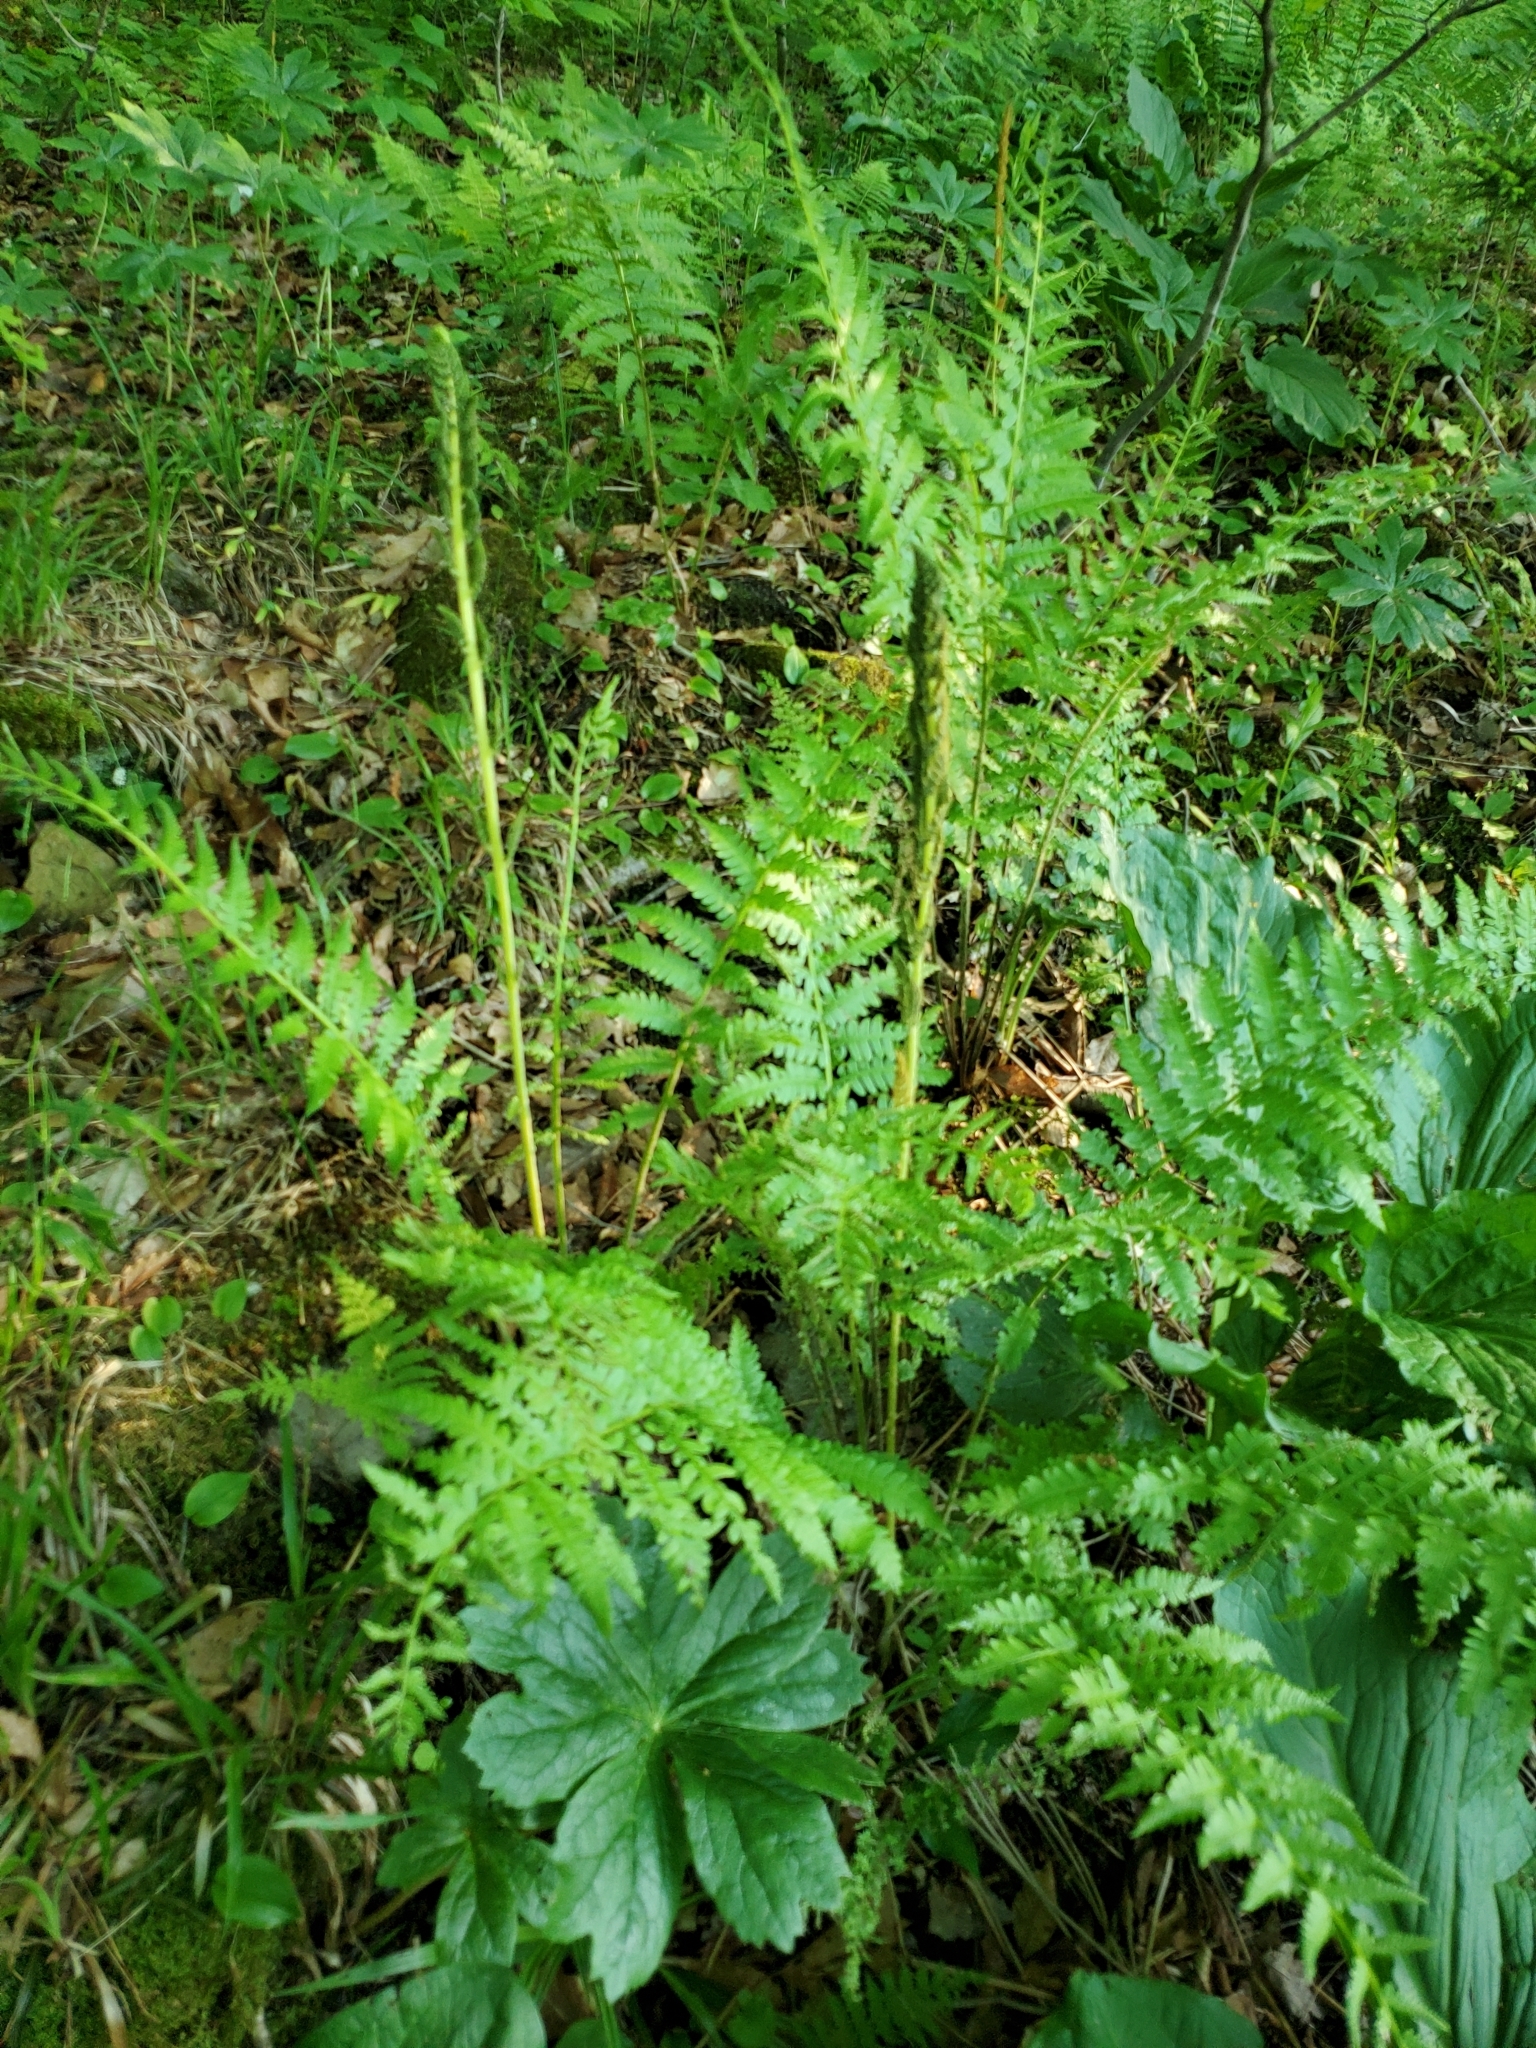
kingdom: Plantae
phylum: Tracheophyta
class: Polypodiopsida
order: Osmundales
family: Osmundaceae
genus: Osmundastrum
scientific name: Osmundastrum cinnamomeum
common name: Cinnamon fern
